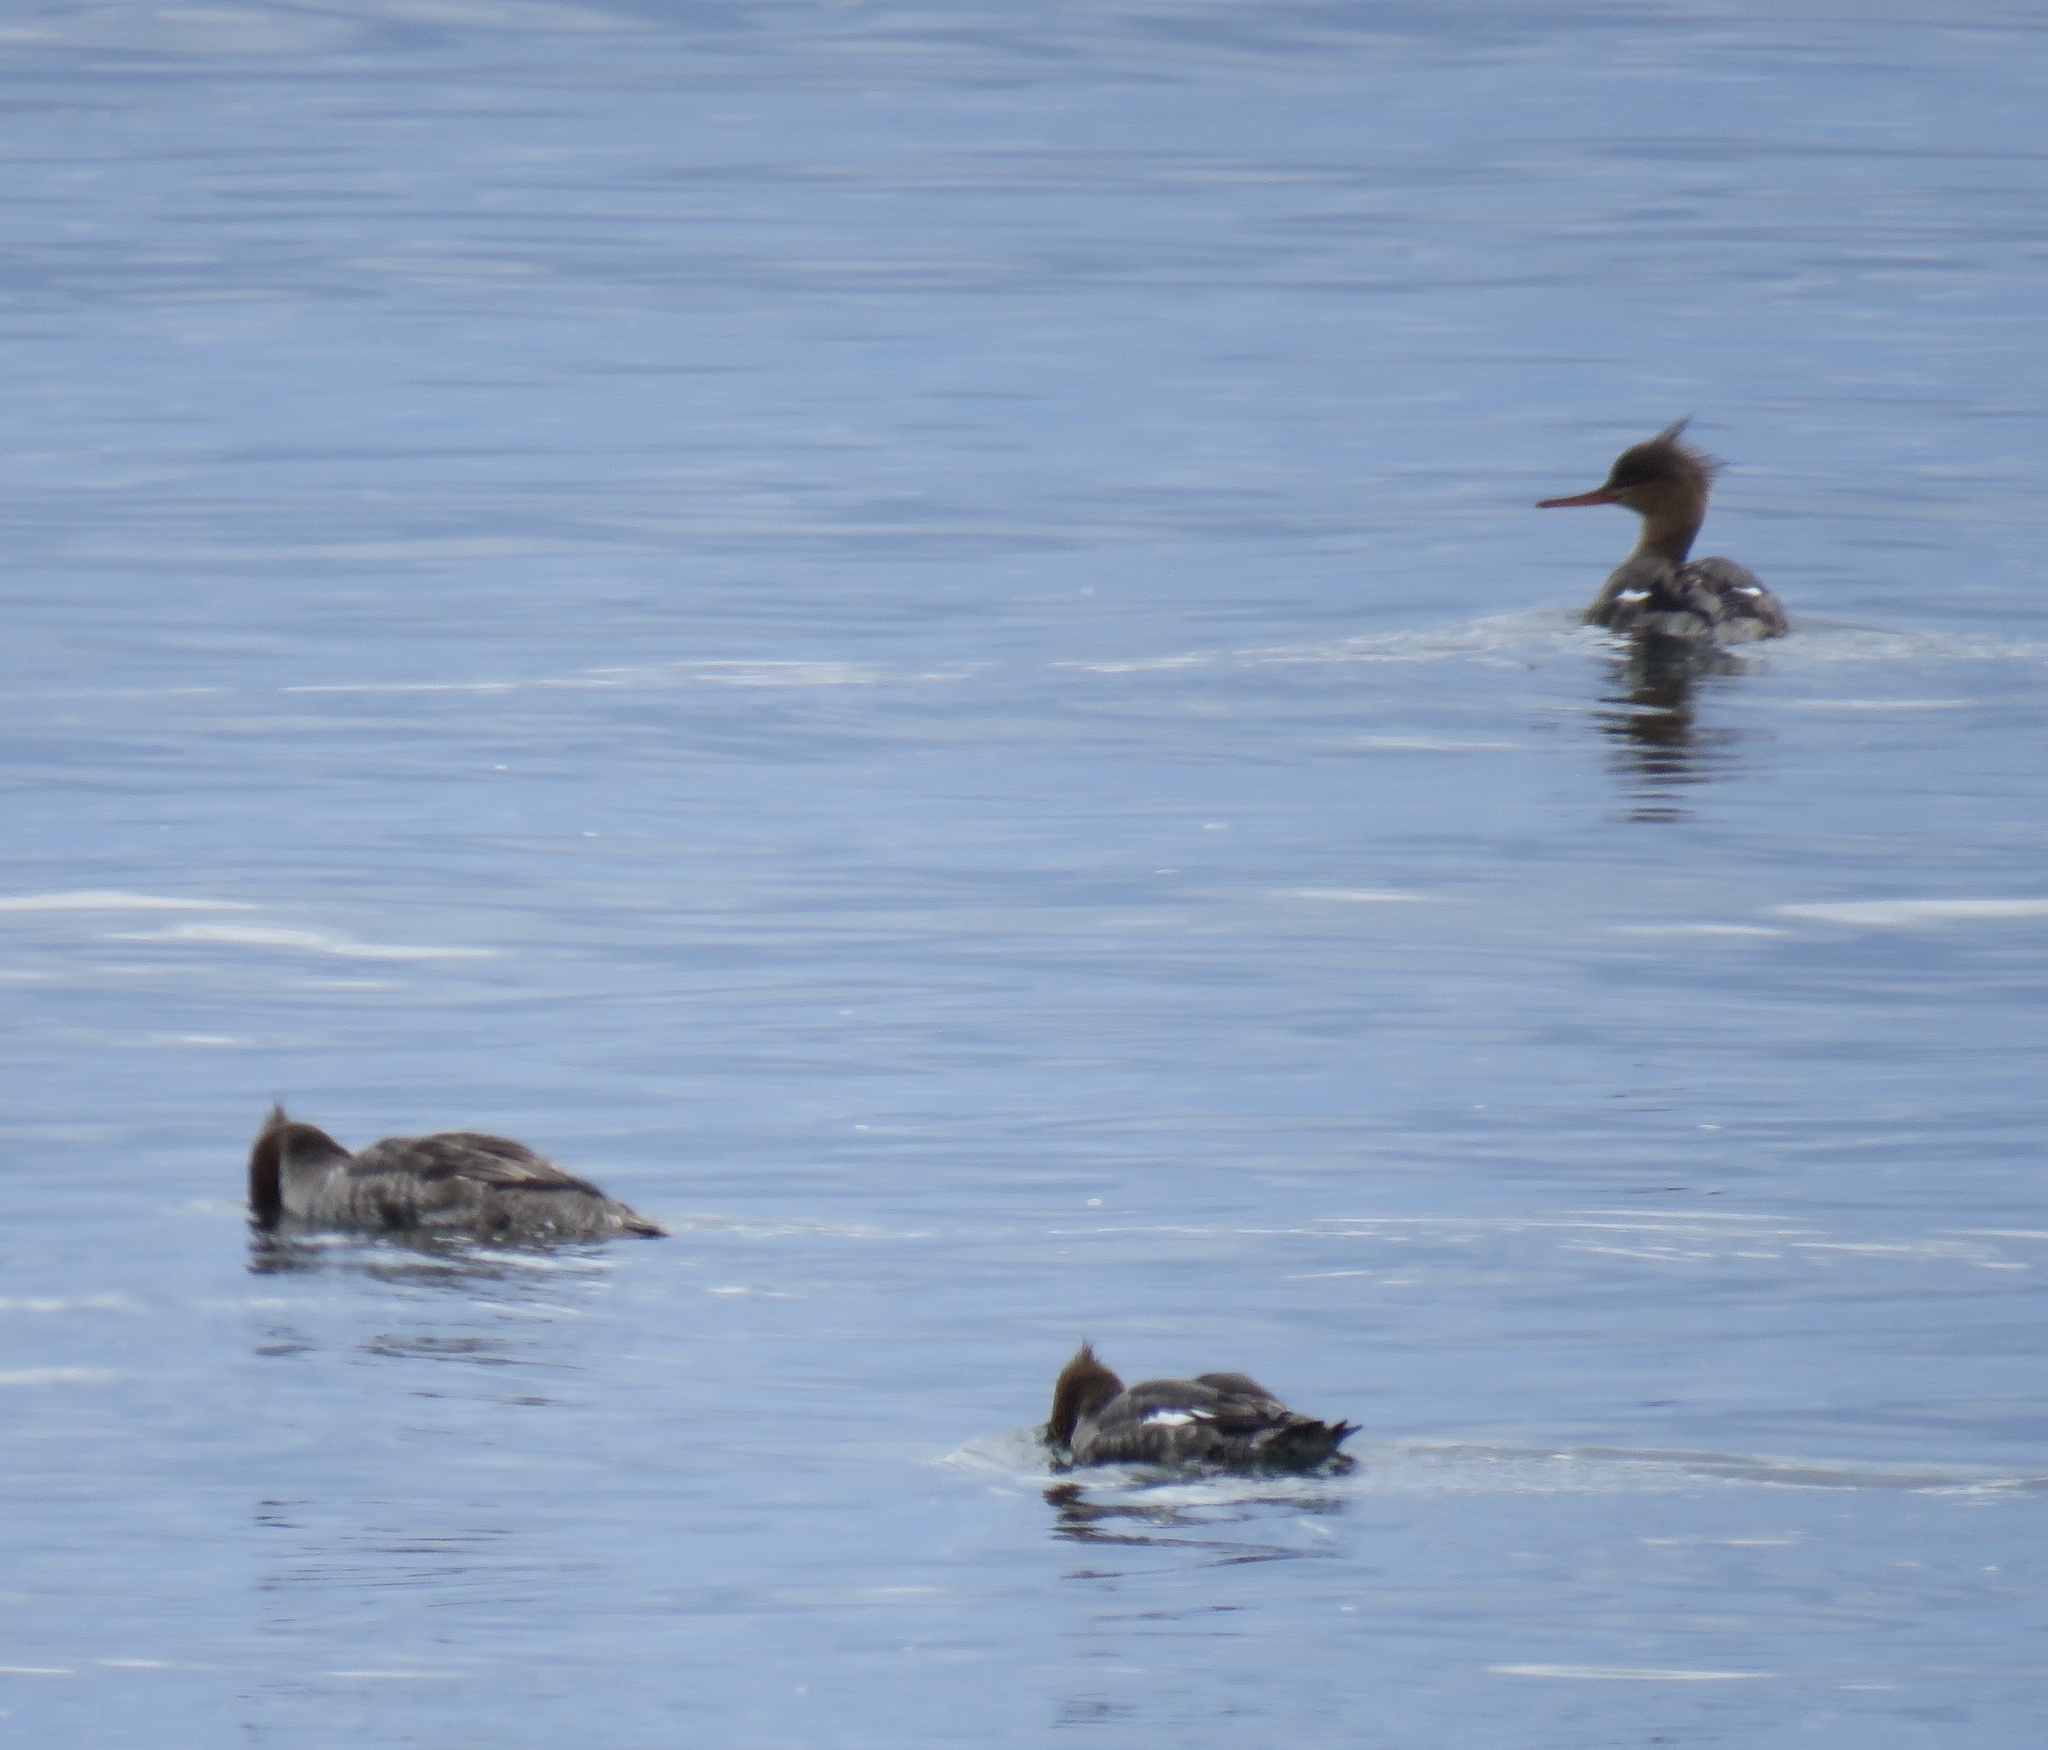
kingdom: Animalia
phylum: Chordata
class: Aves
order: Anseriformes
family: Anatidae
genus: Mergus
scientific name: Mergus serrator
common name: Red-breasted merganser
